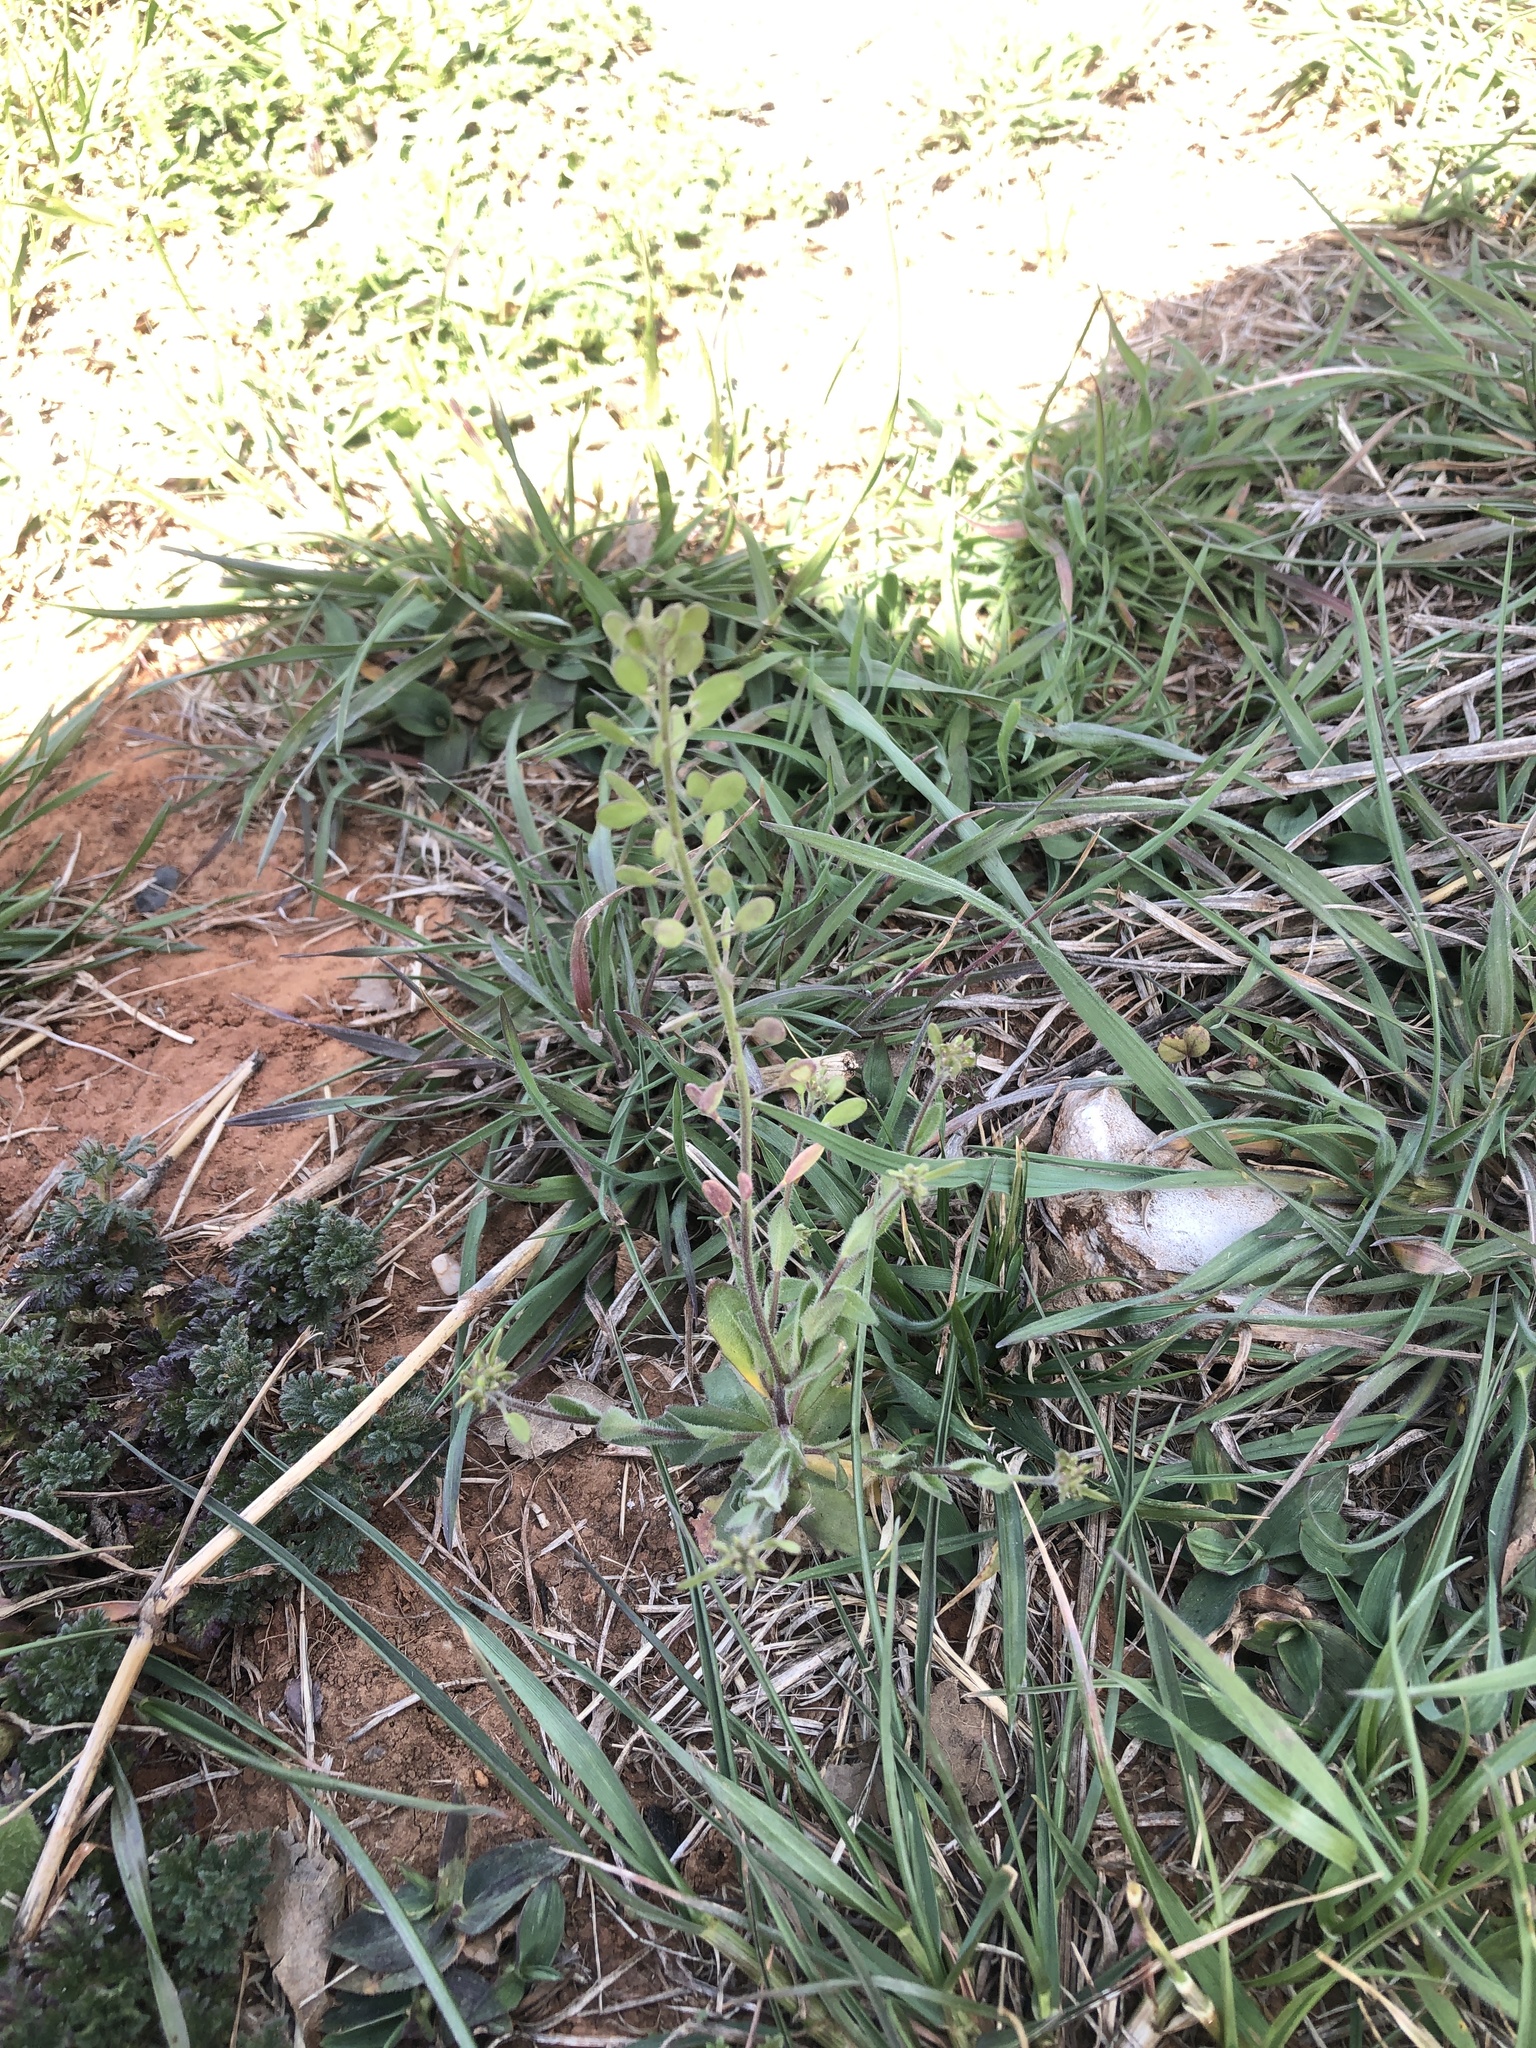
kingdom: Plantae
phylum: Tracheophyta
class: Magnoliopsida
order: Brassicales
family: Brassicaceae
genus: Tomostima
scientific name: Tomostima platycarpa
